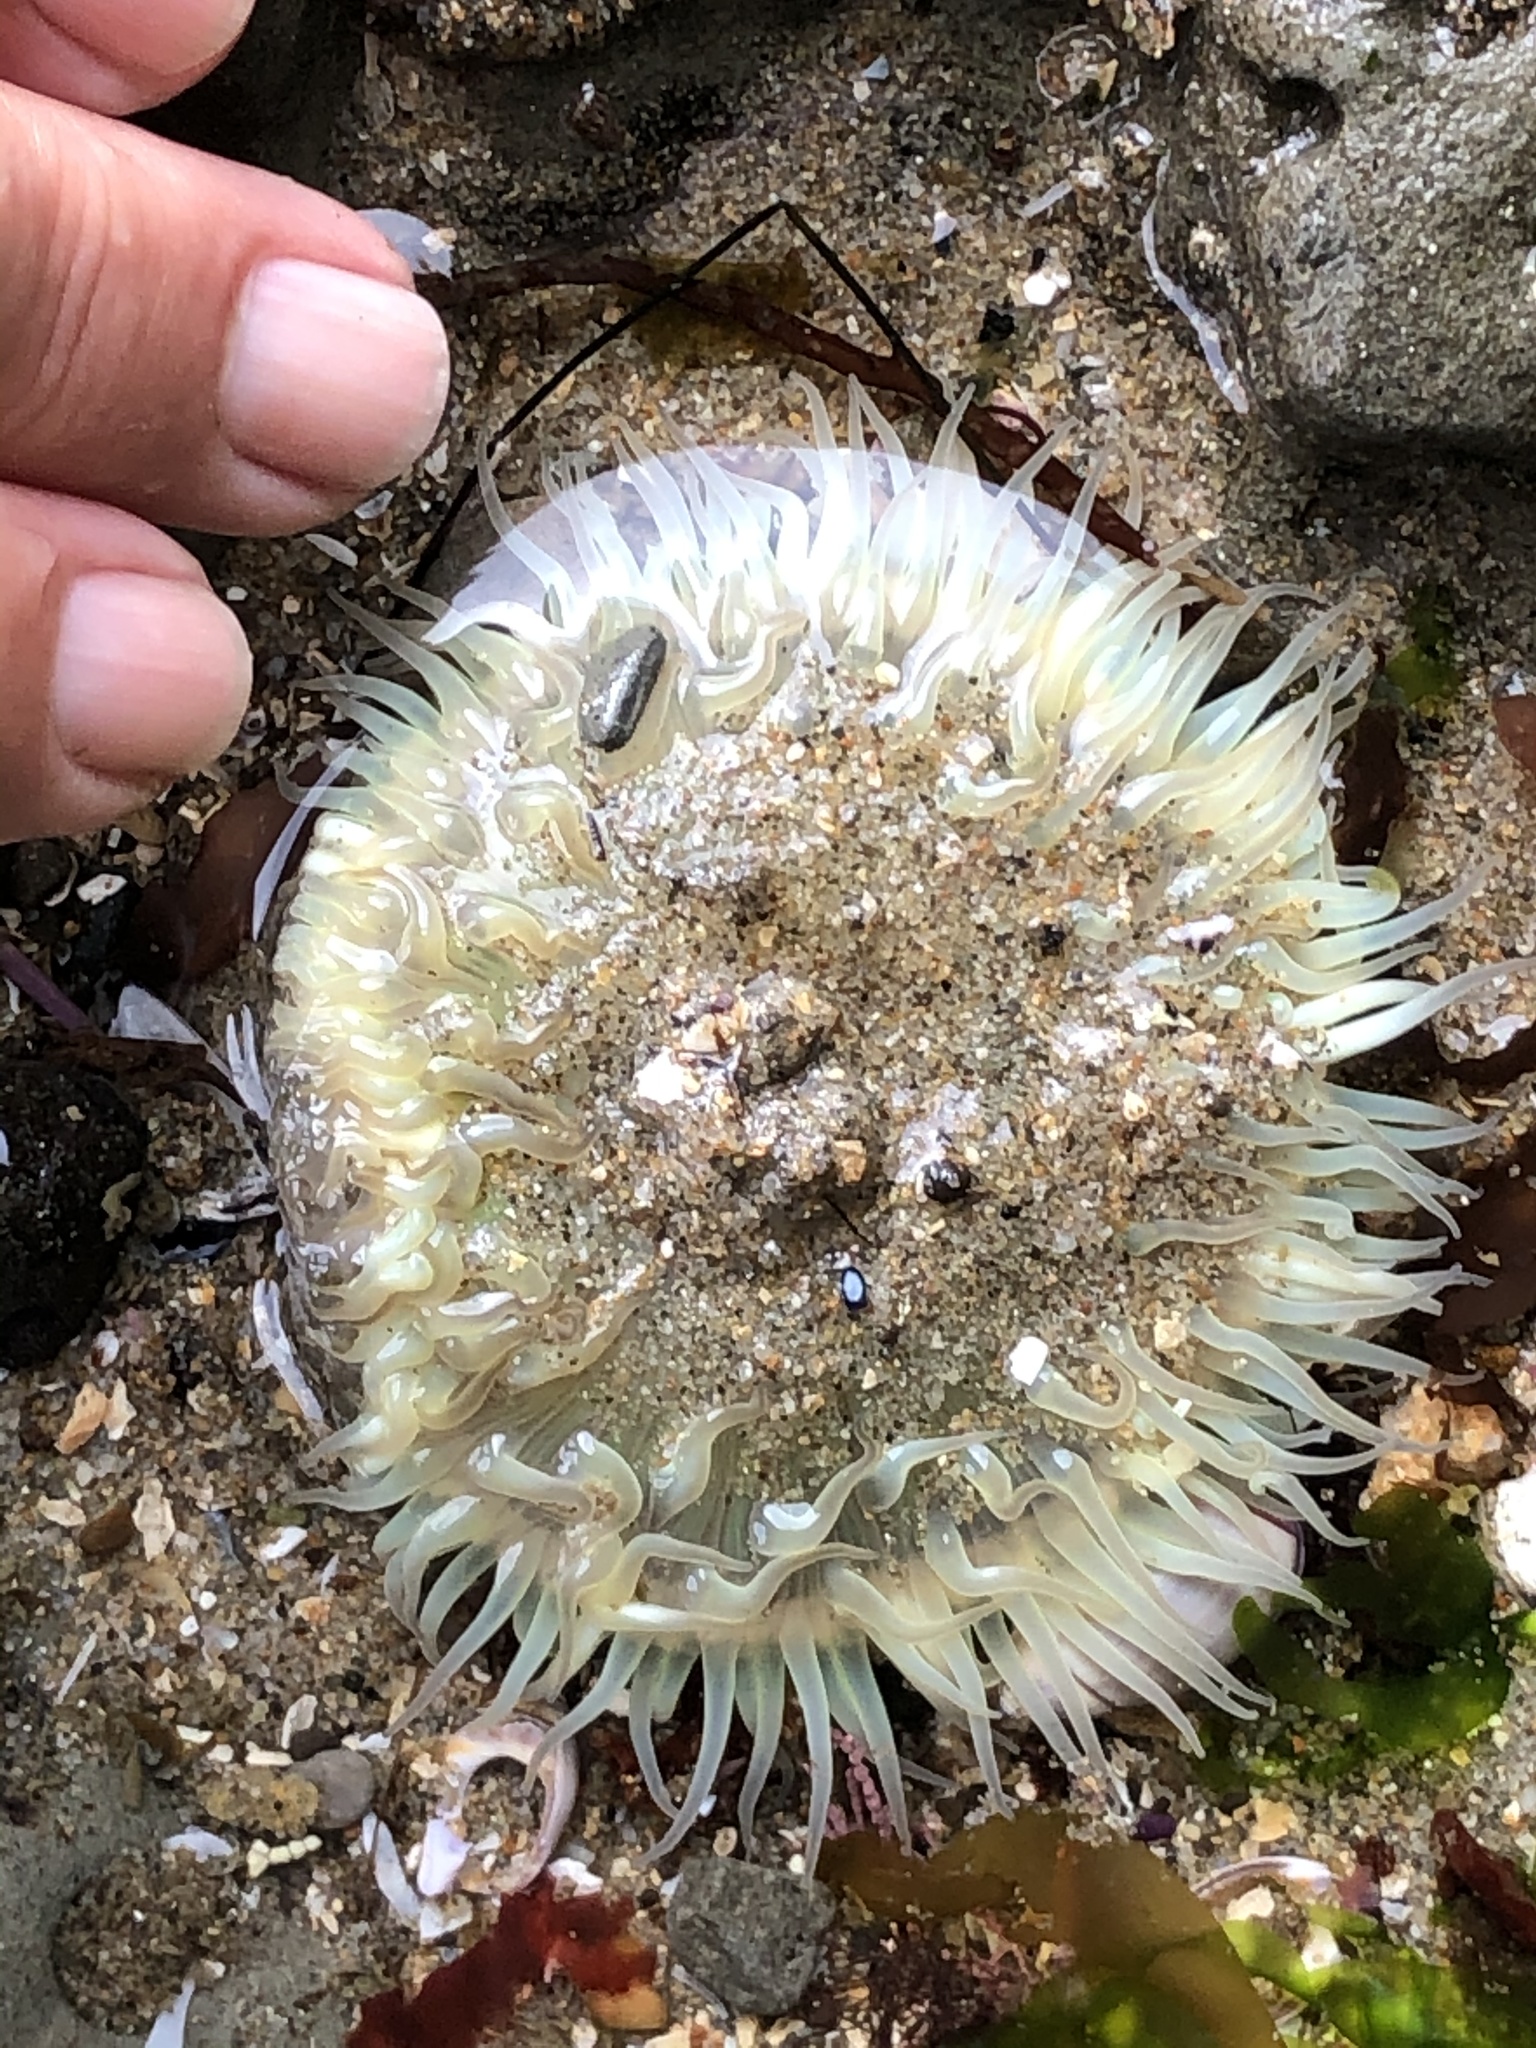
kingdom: Animalia
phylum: Cnidaria
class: Anthozoa
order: Actiniaria
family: Actiniidae
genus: Anthopleura
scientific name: Anthopleura sola
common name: Sun anemone
